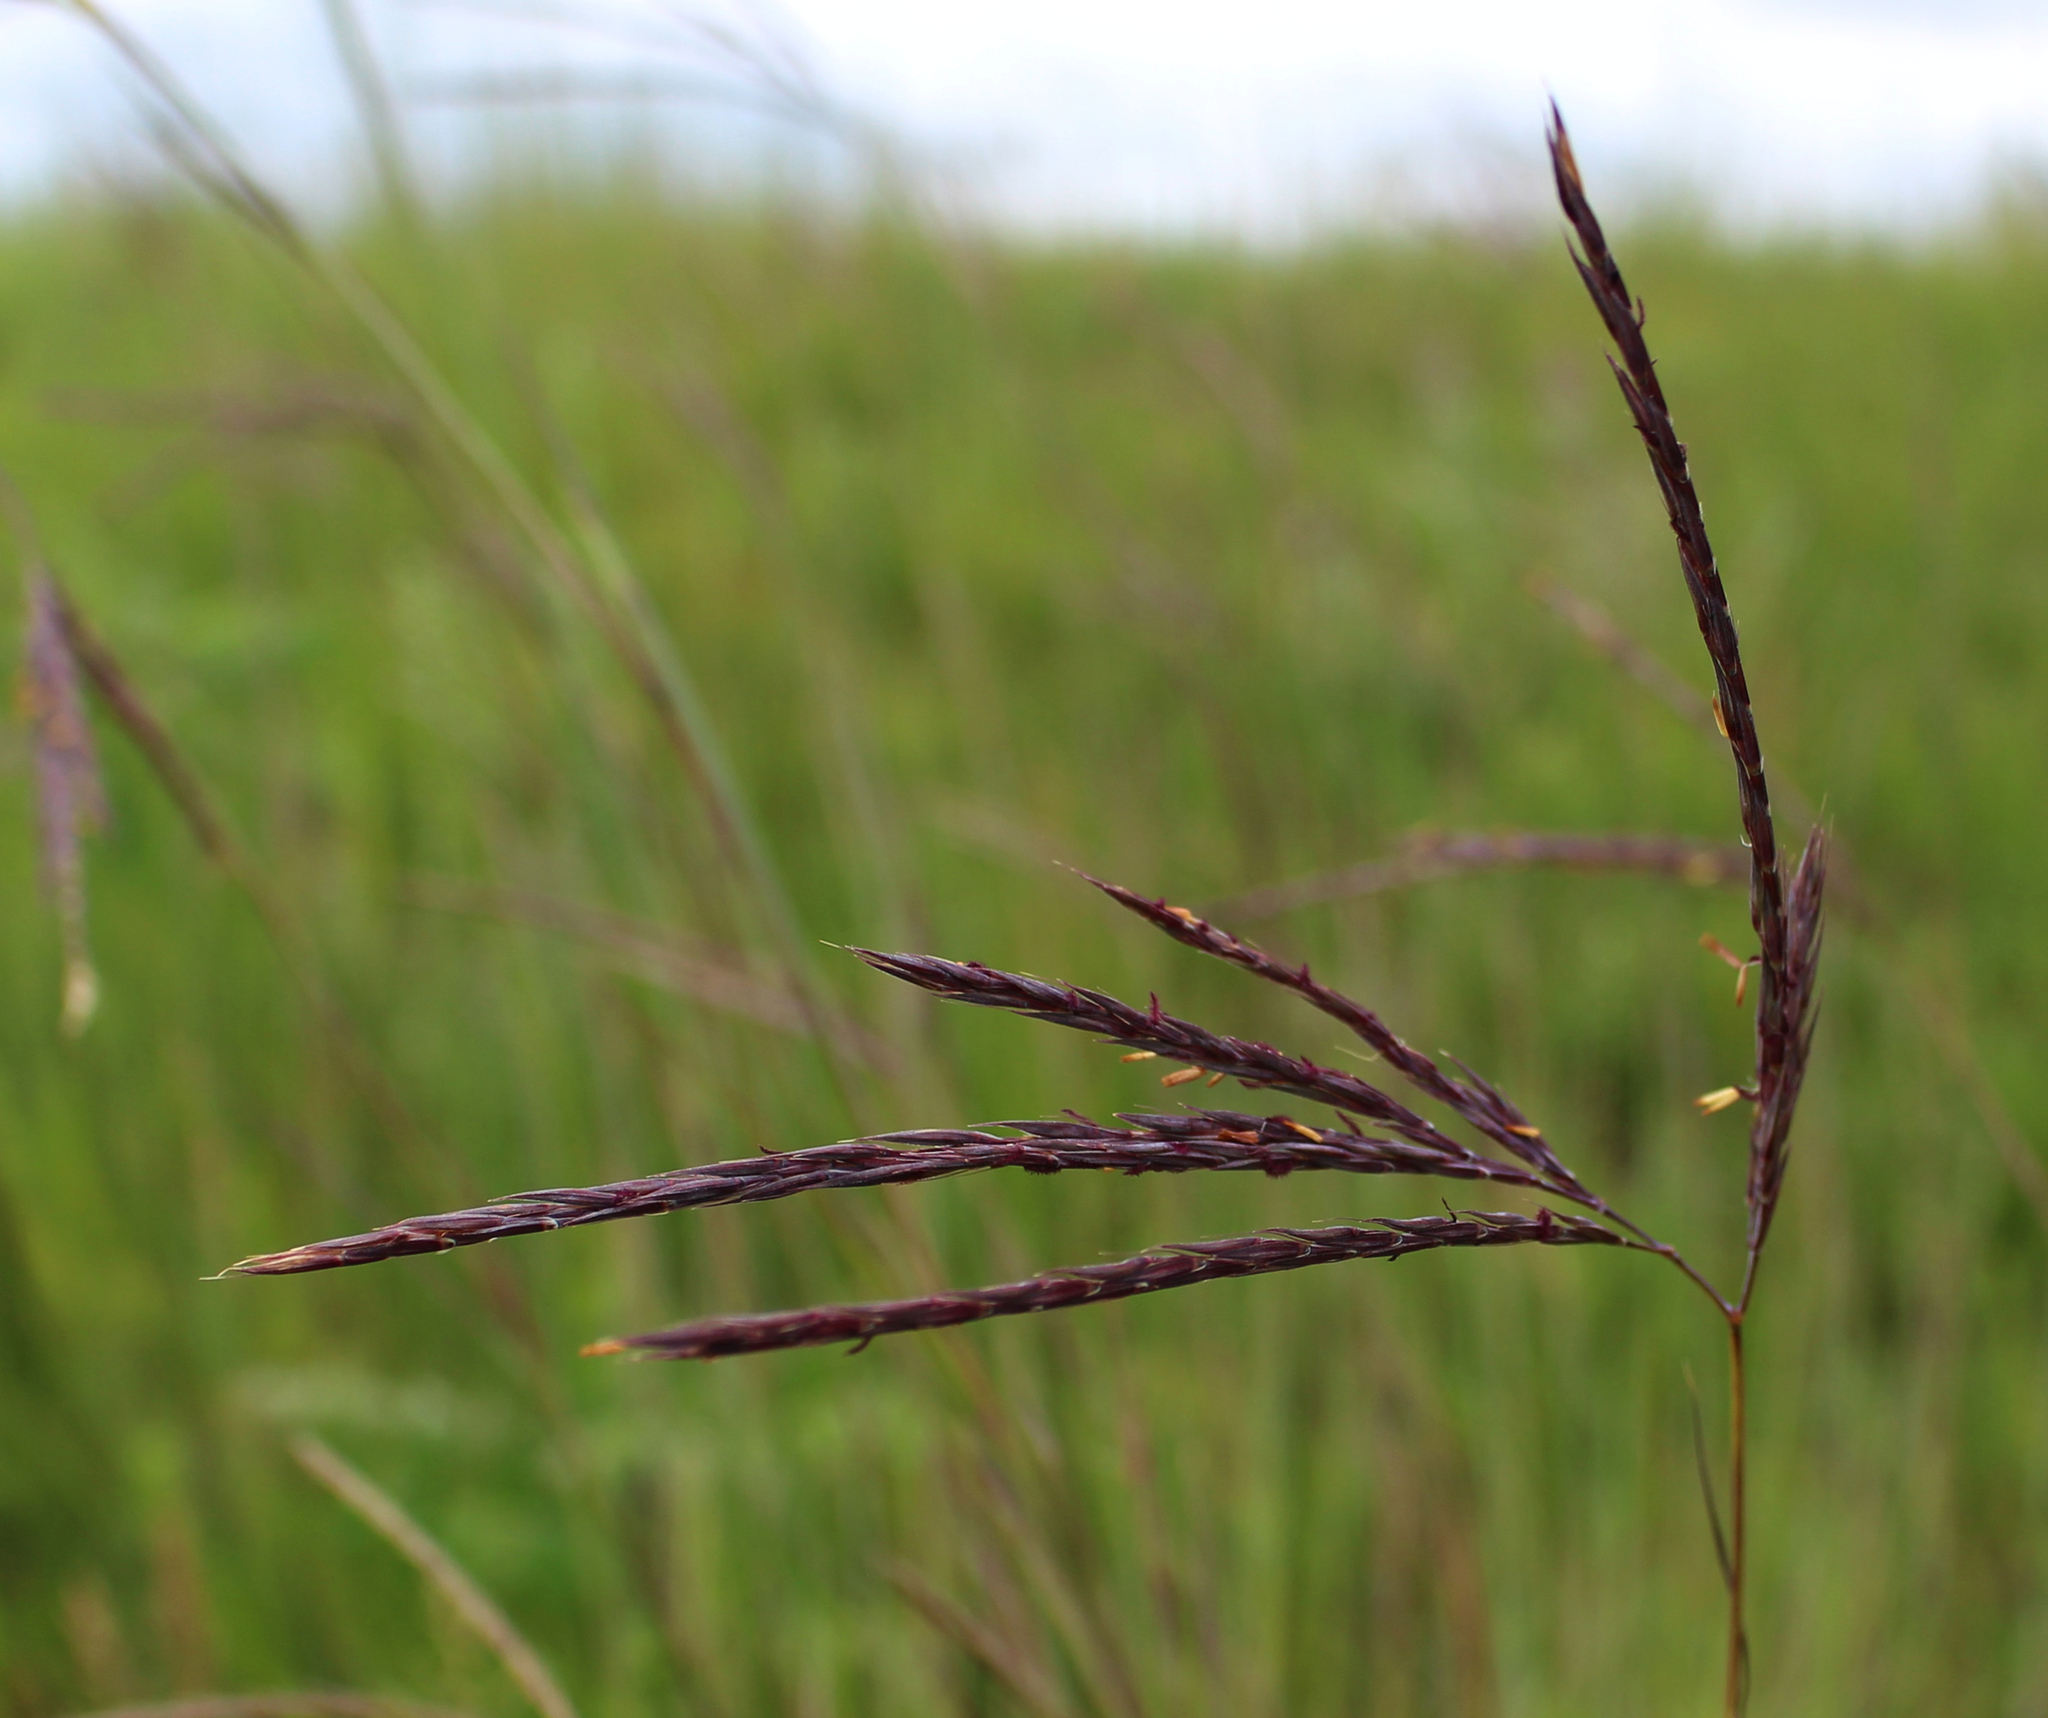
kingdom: Plantae
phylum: Tracheophyta
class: Liliopsida
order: Poales
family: Poaceae
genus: Andropogon
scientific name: Andropogon gerardi
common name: Big bluestem
